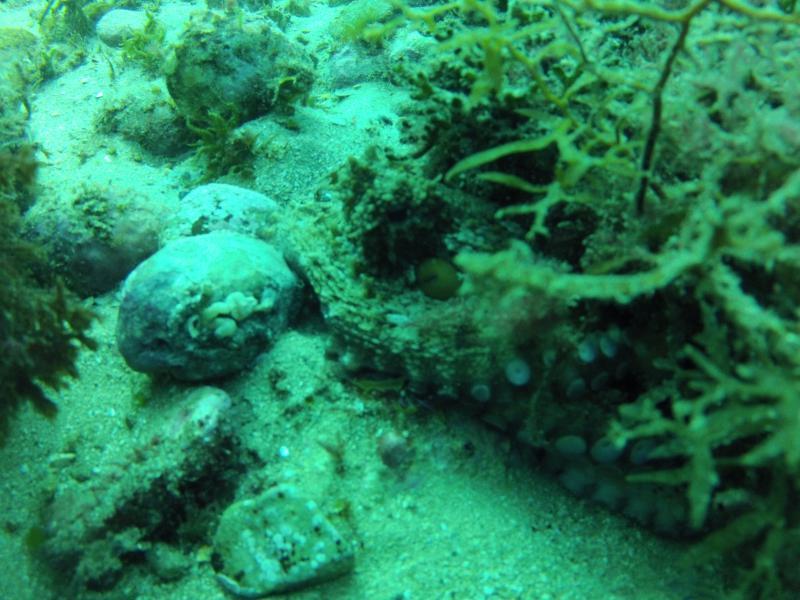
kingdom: Animalia
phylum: Mollusca
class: Cephalopoda
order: Octopoda
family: Octopodidae
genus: Octopus
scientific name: Octopus vulgaris
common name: Common octopus
